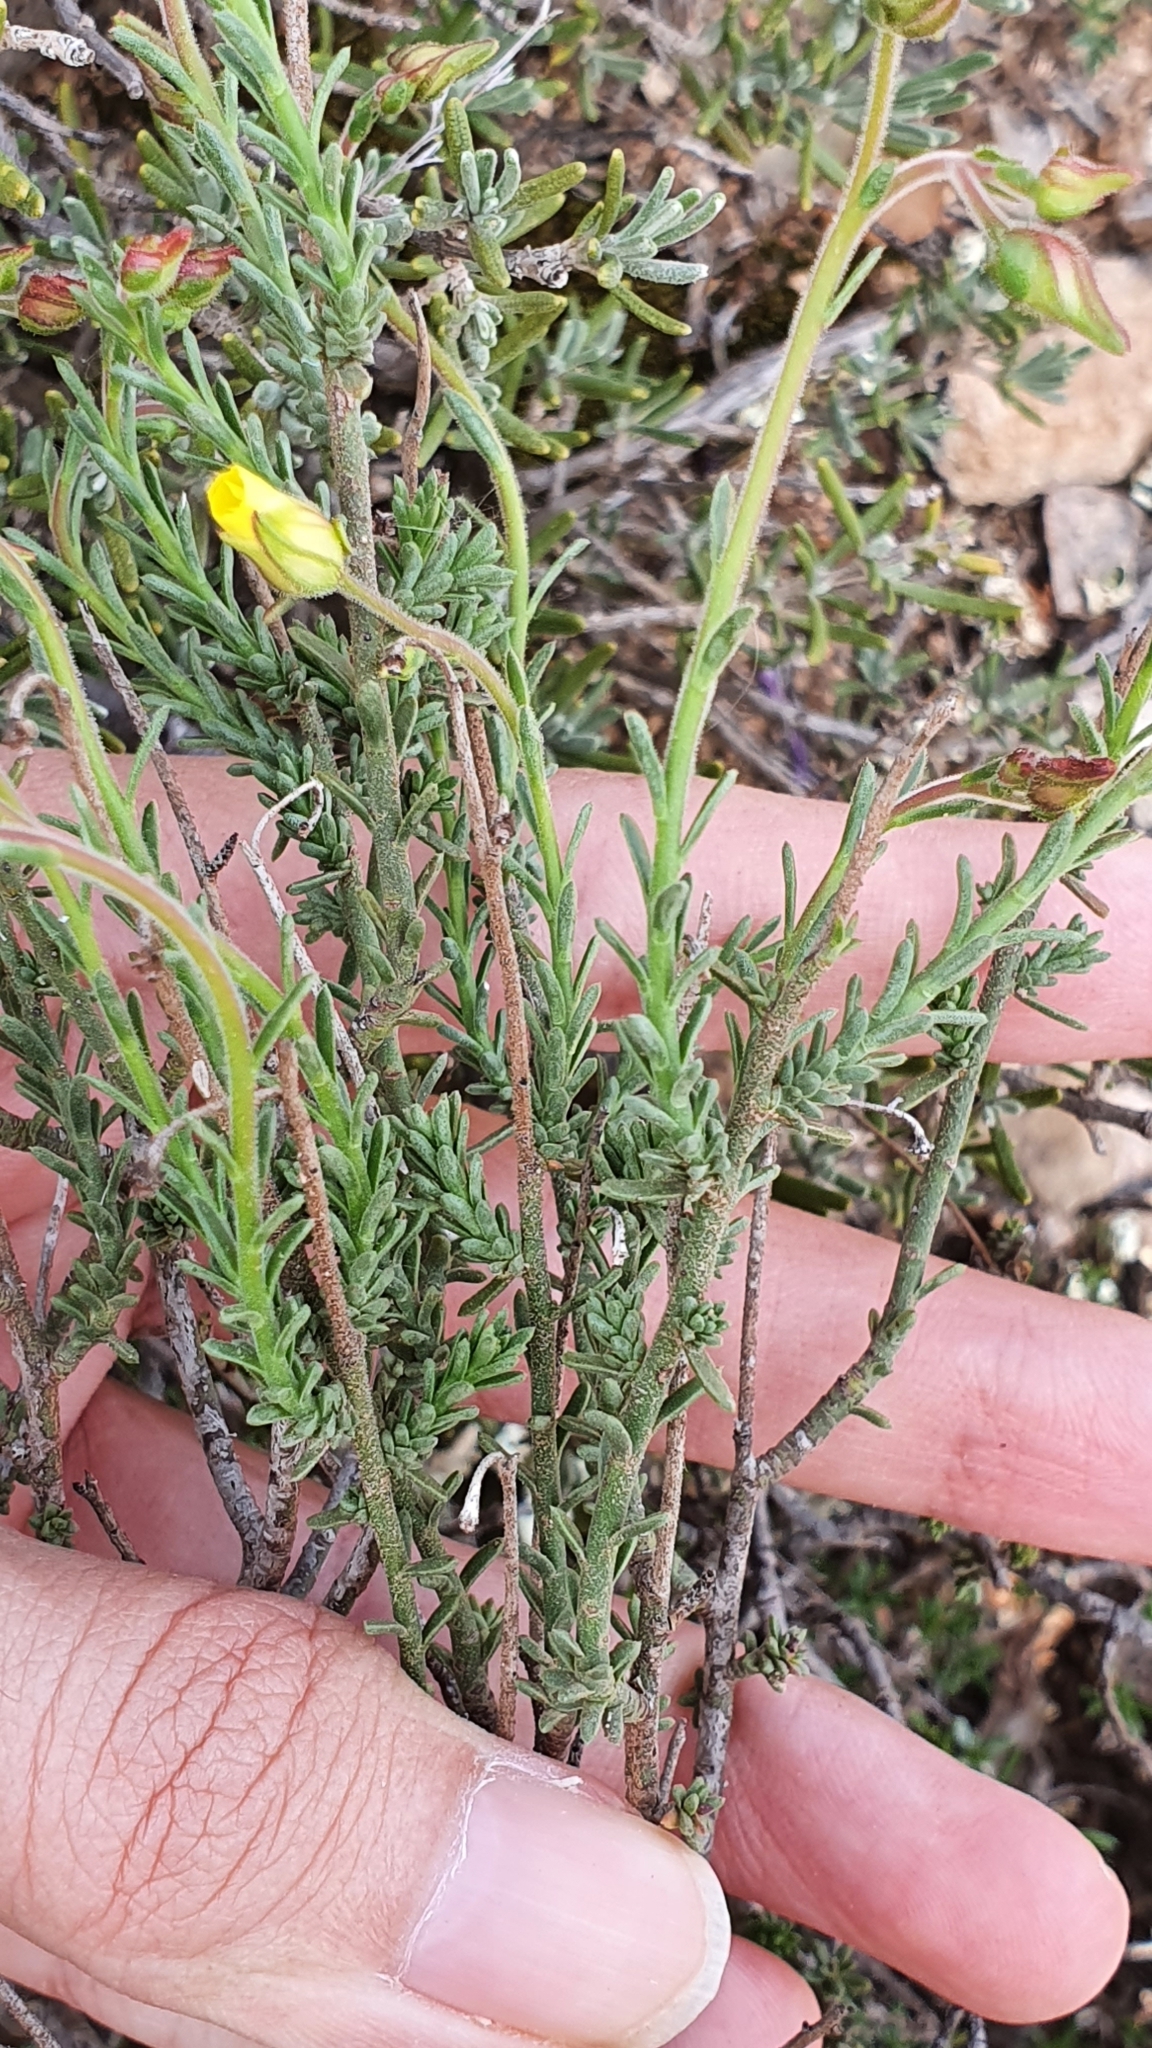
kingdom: Plantae
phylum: Tracheophyta
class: Magnoliopsida
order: Malvales
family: Cistaceae
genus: Fumana
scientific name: Fumana scoparia
